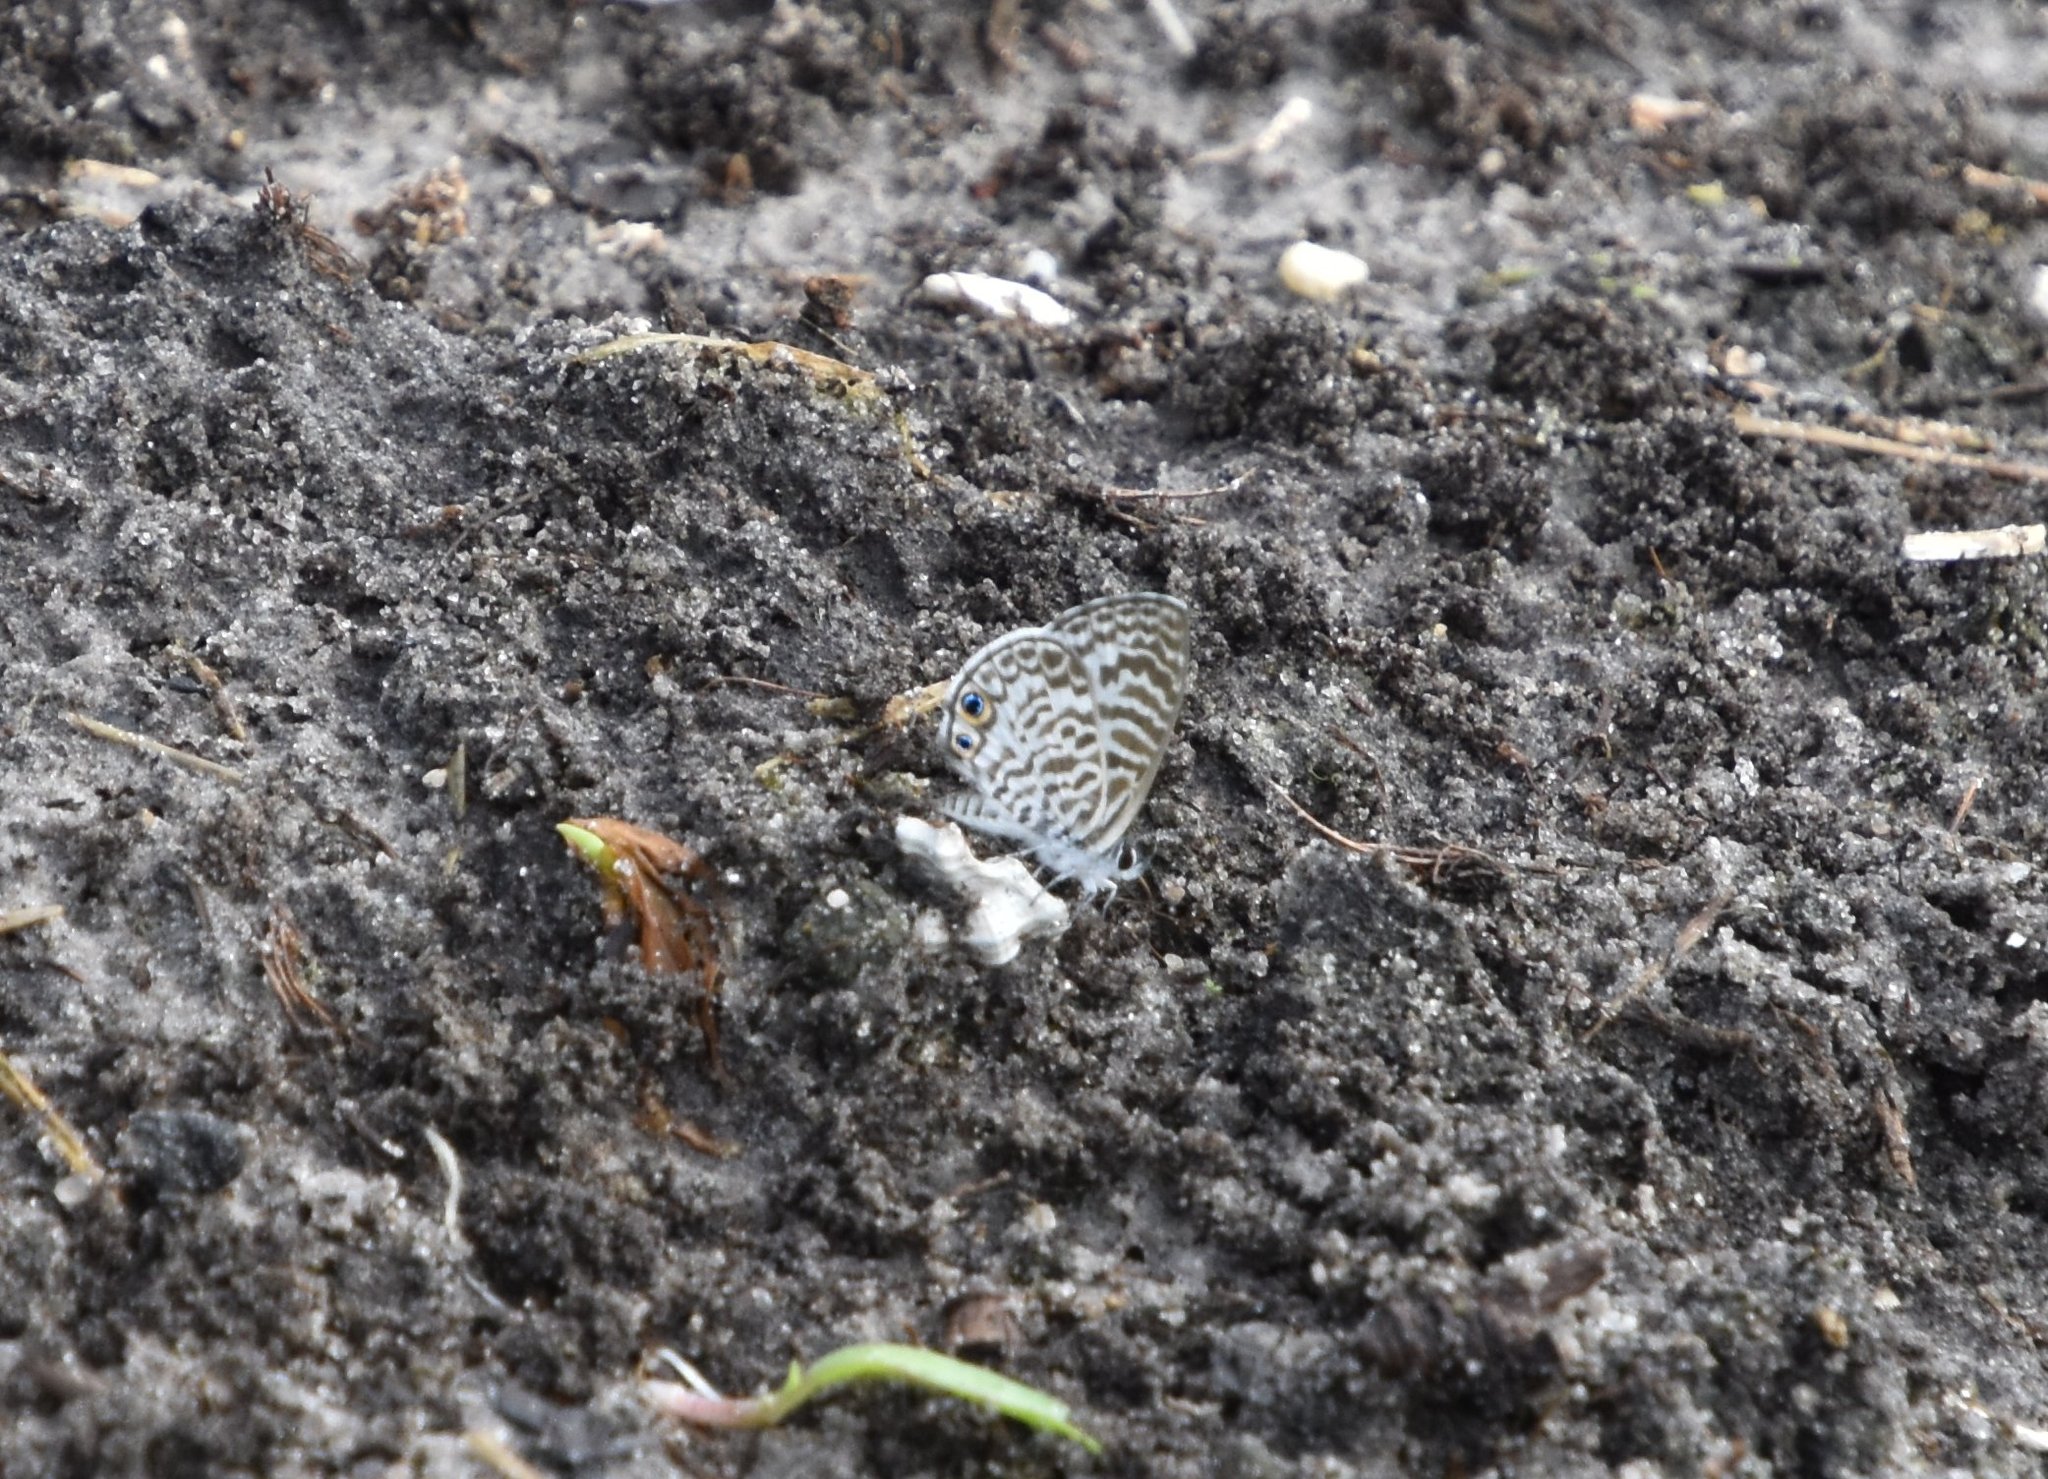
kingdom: Animalia
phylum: Arthropoda
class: Insecta
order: Lepidoptera
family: Lycaenidae
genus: Leptotes
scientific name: Leptotes cassius
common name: Cassius blue
